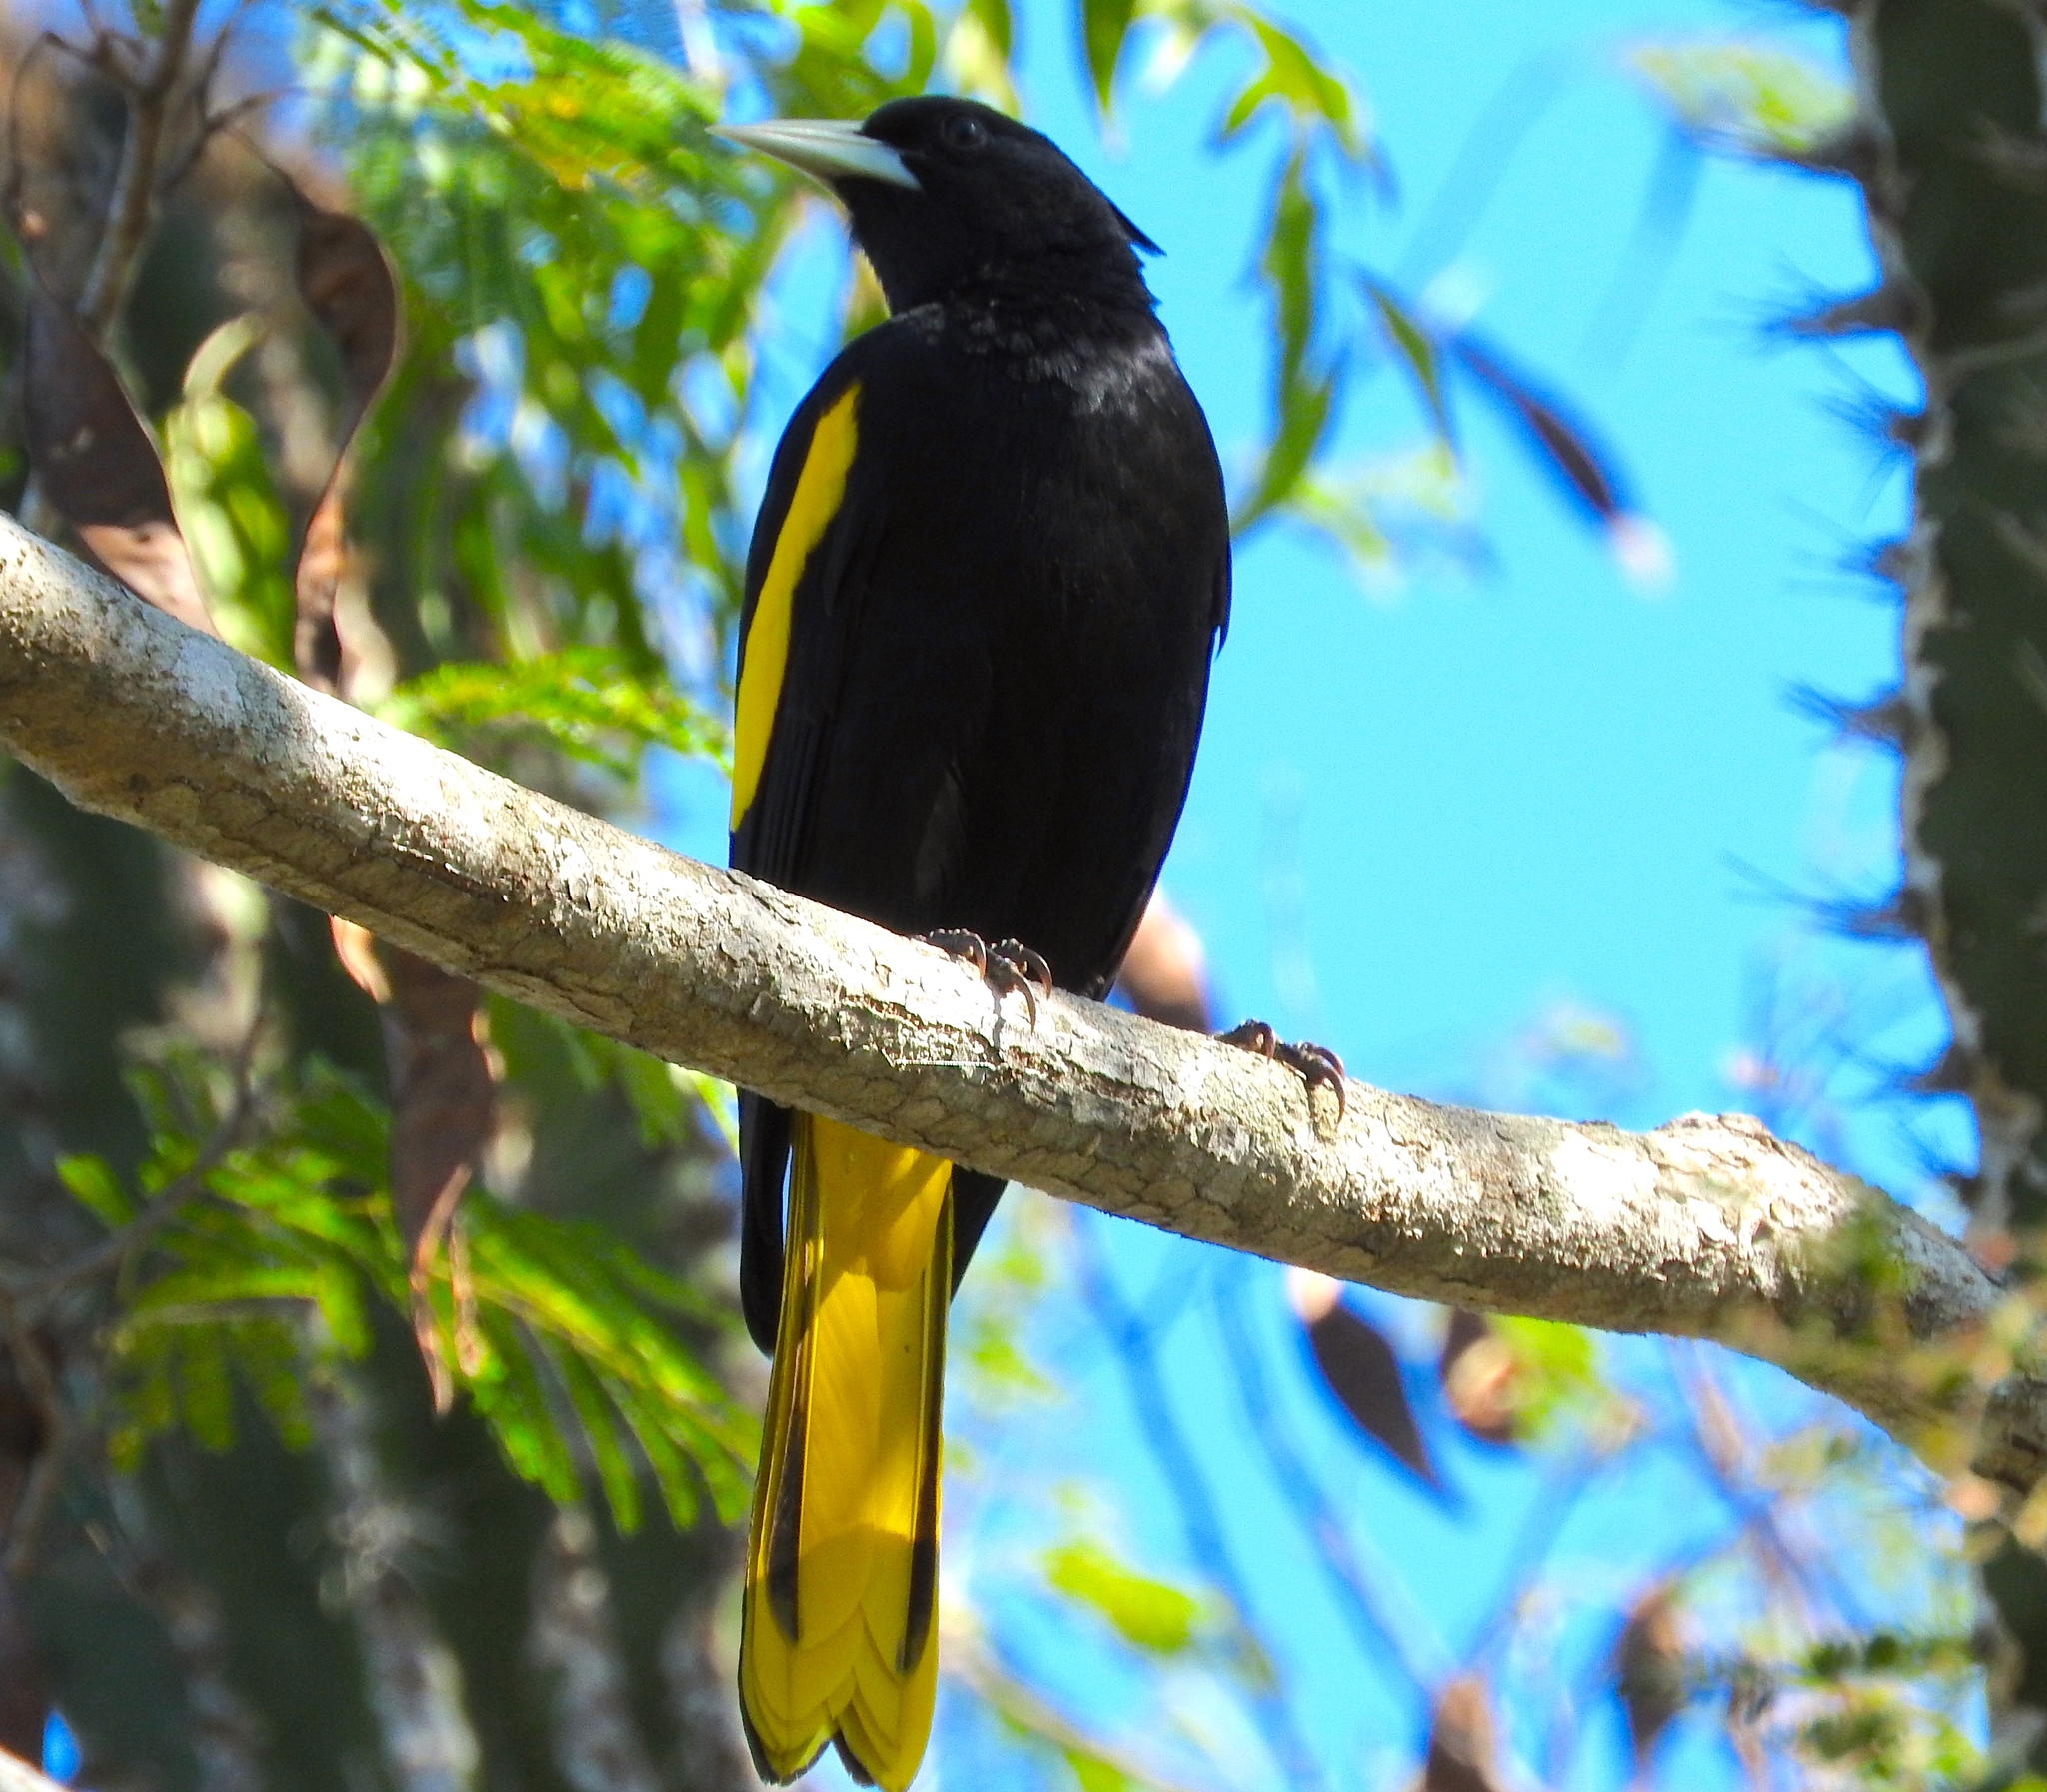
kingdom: Animalia
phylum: Chordata
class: Aves
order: Passeriformes
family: Icteridae
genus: Cacicus
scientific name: Cacicus melanicterus
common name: Yellow-winged cacique
